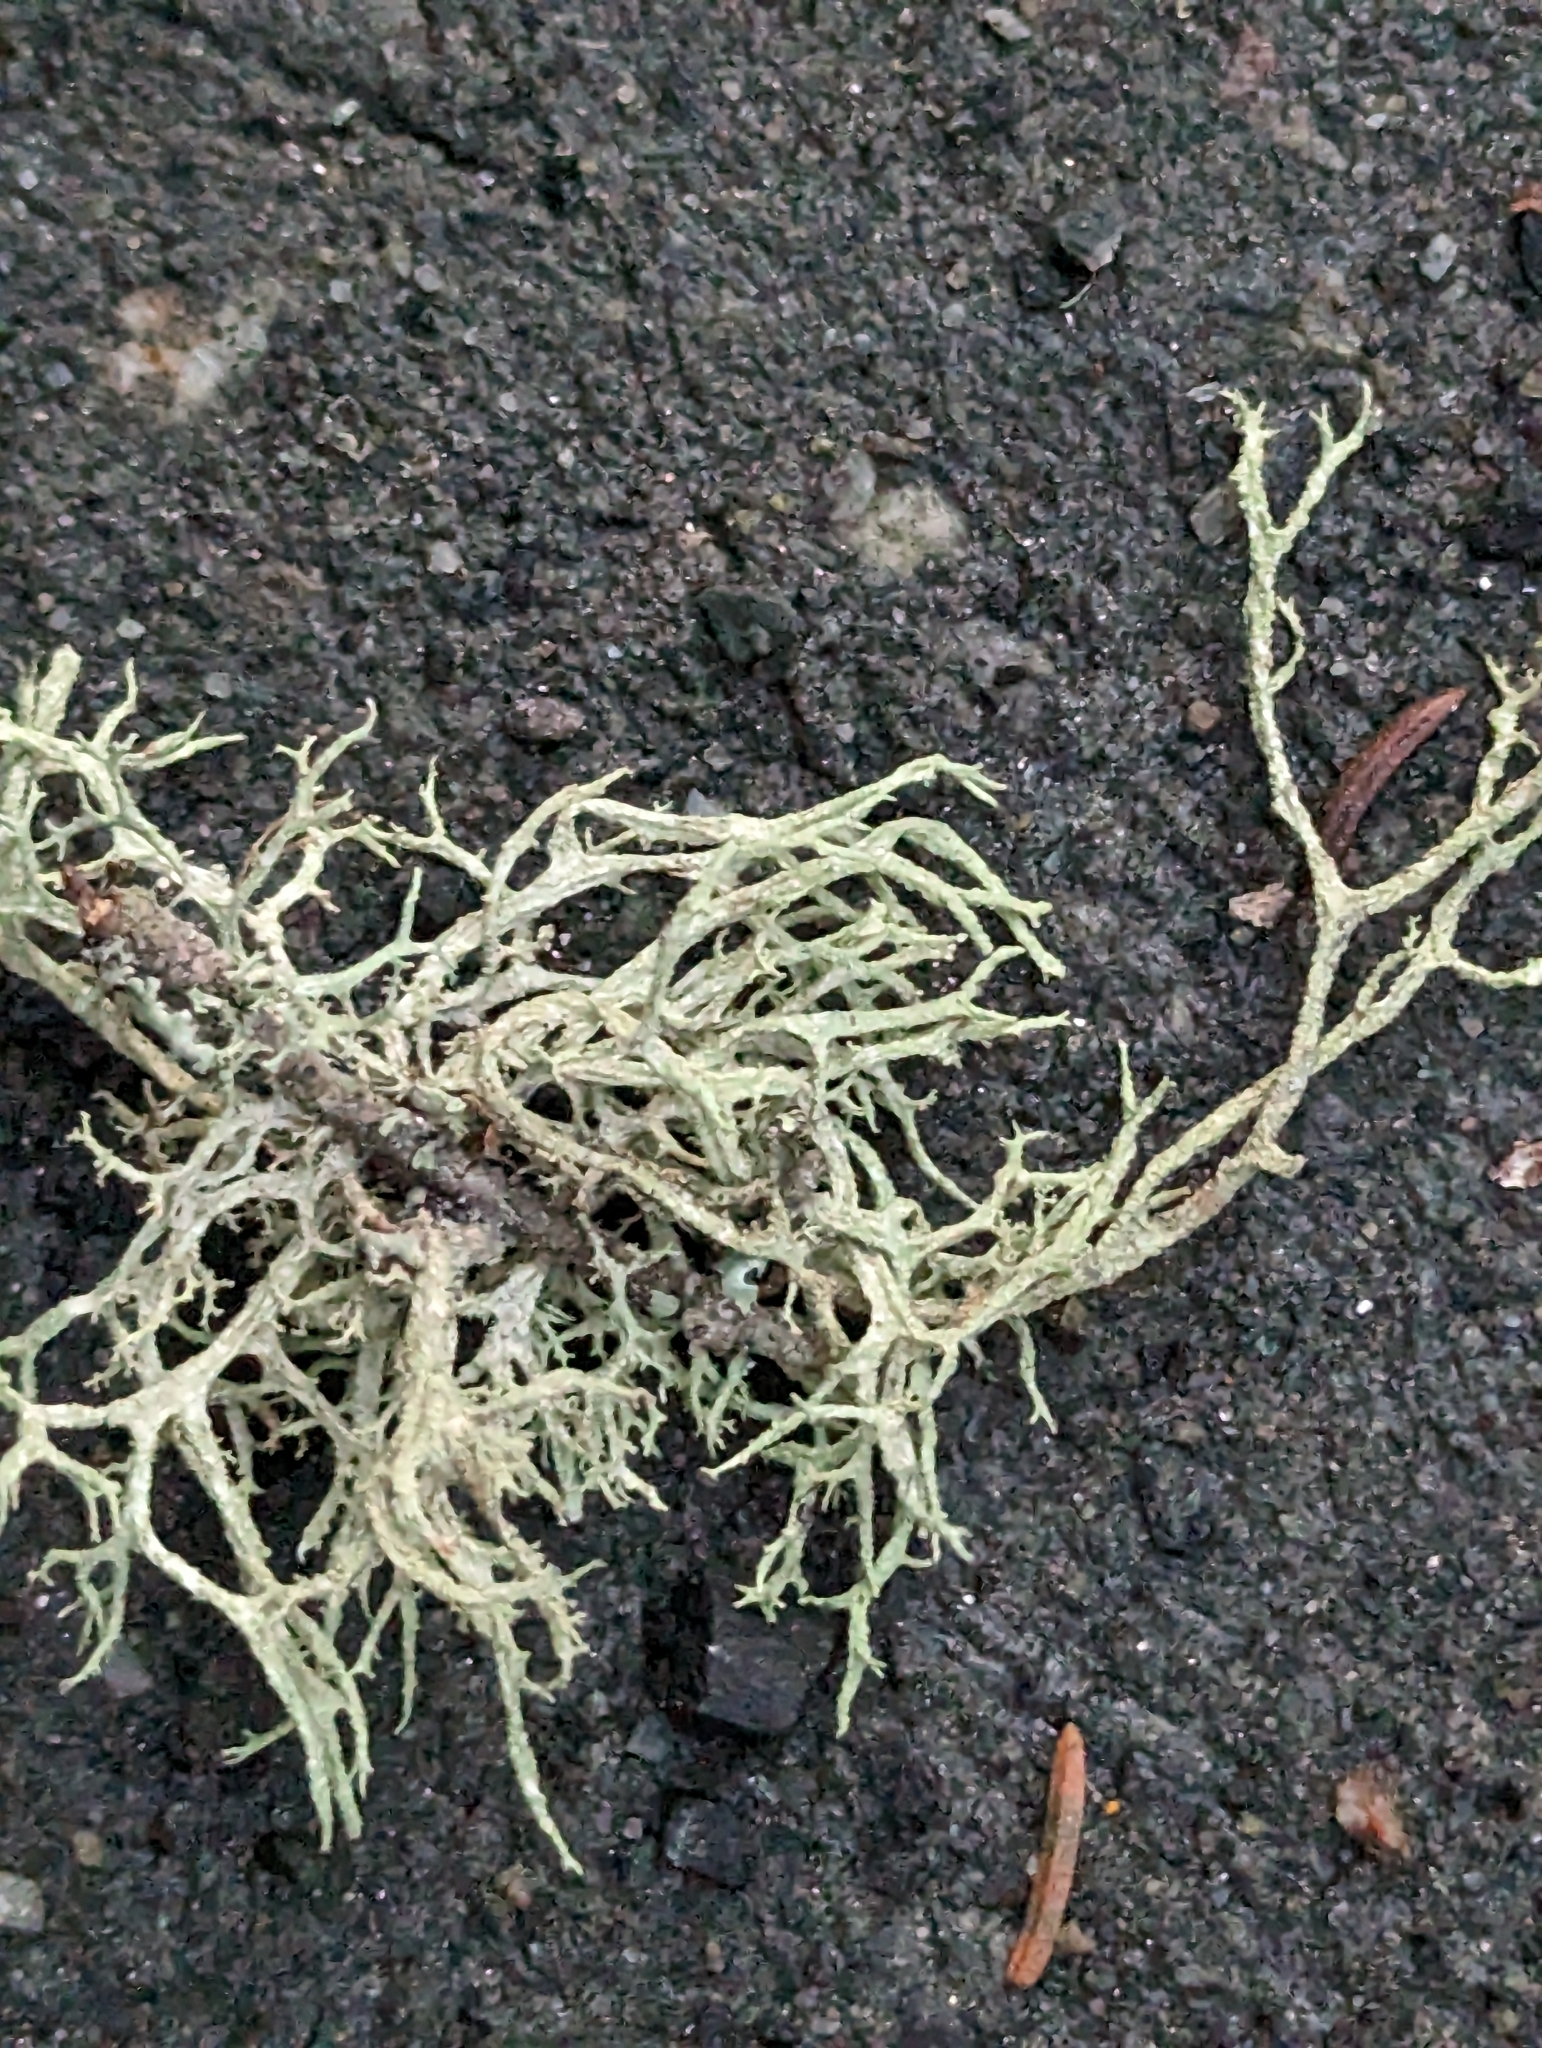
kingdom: Fungi
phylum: Ascomycota
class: Lecanoromycetes
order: Lecanorales
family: Parmeliaceae
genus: Evernia
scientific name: Evernia mesomorpha
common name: Boreal oak moss lichen
